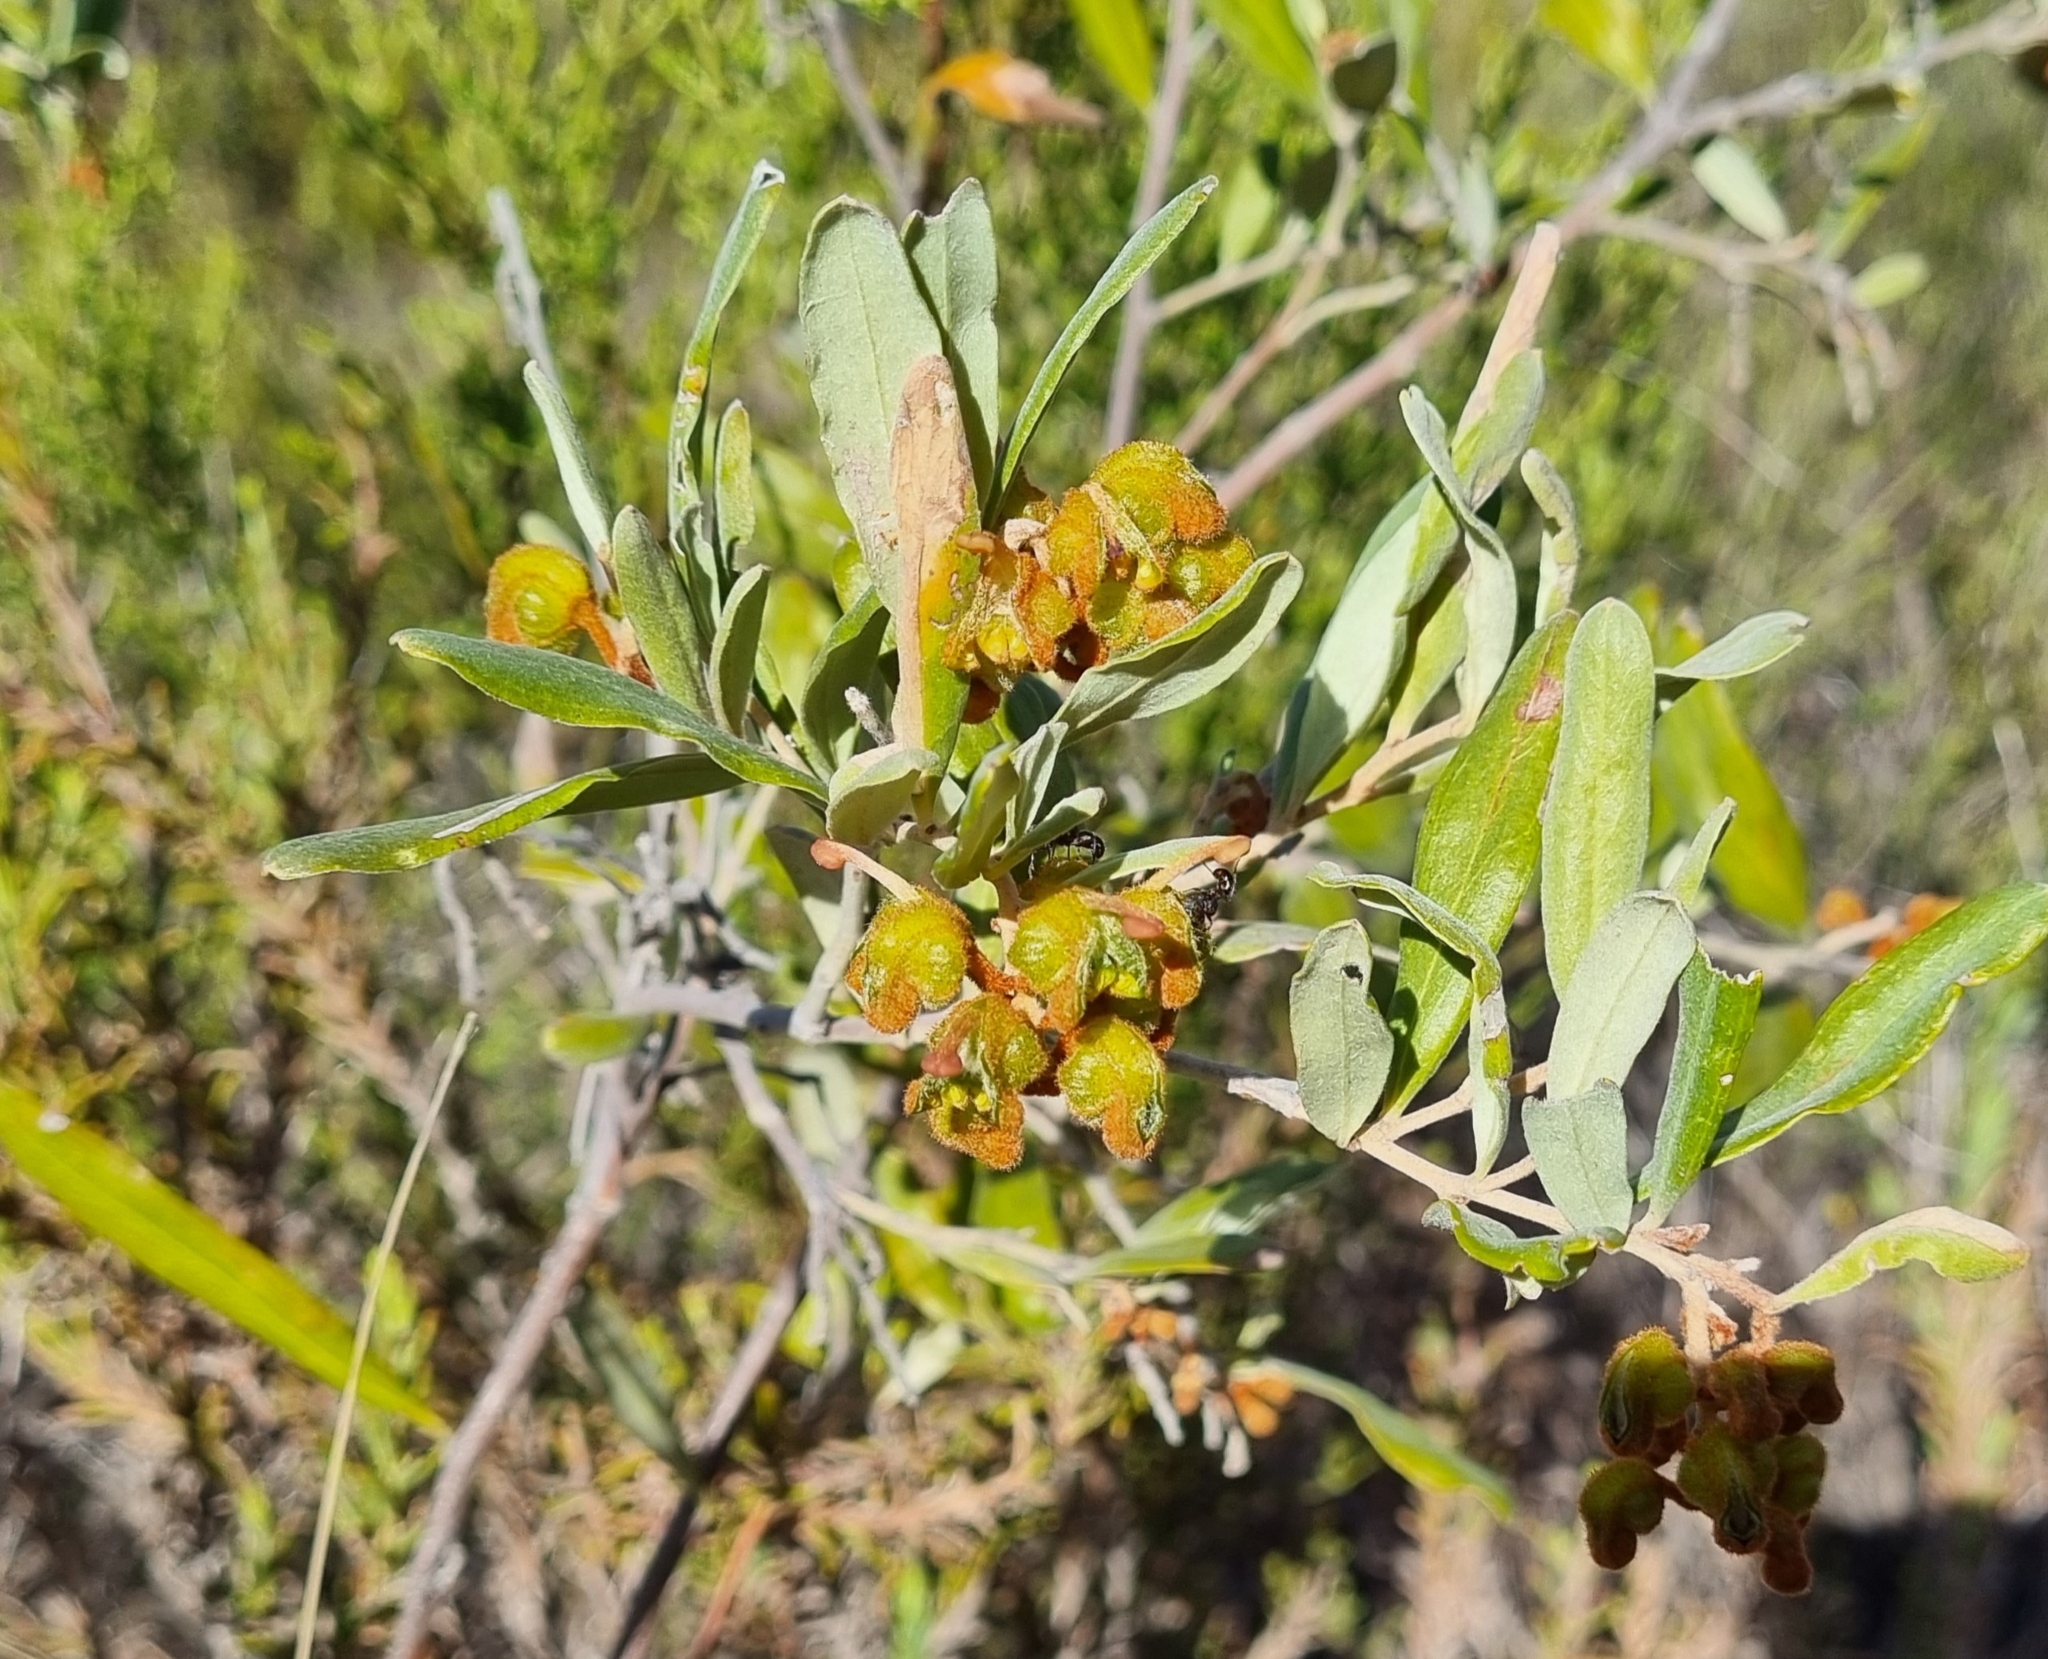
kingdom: Plantae
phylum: Tracheophyta
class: Magnoliopsida
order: Proteales
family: Proteaceae
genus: Grevillea
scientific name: Grevillea floribunda
